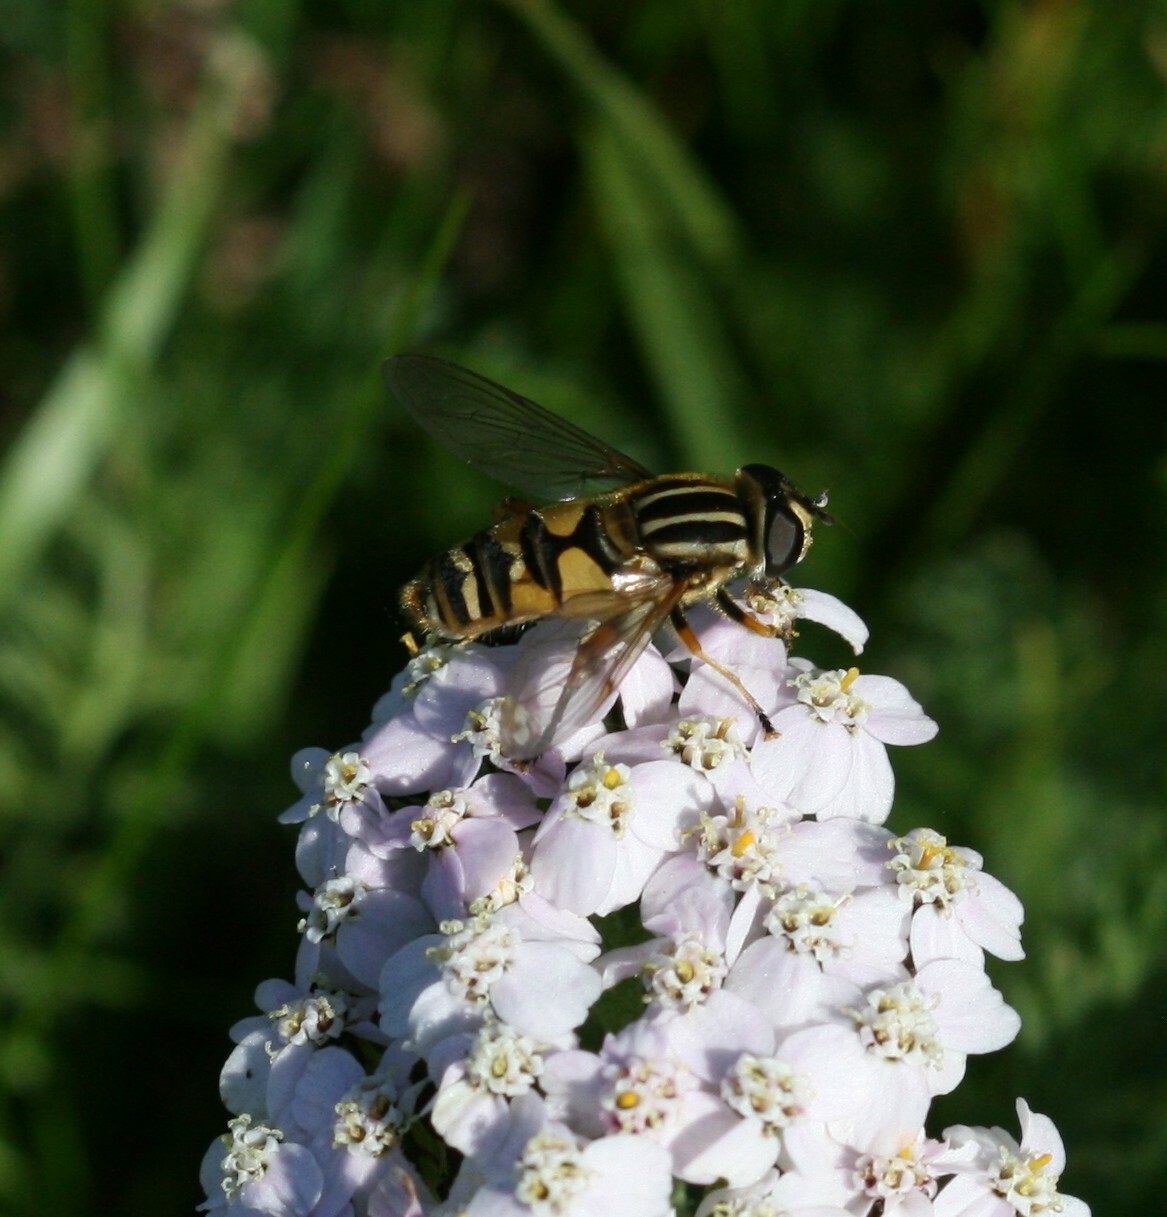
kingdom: Animalia
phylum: Arthropoda
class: Insecta
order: Diptera
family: Syrphidae
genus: Helophilus
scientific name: Helophilus pendulus
